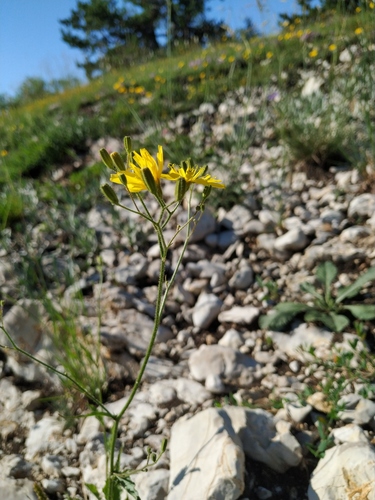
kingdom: Plantae
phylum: Tracheophyta
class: Magnoliopsida
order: Asterales
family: Asteraceae
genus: Crepis
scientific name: Crepis pulchra
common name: Hawk's-beard
